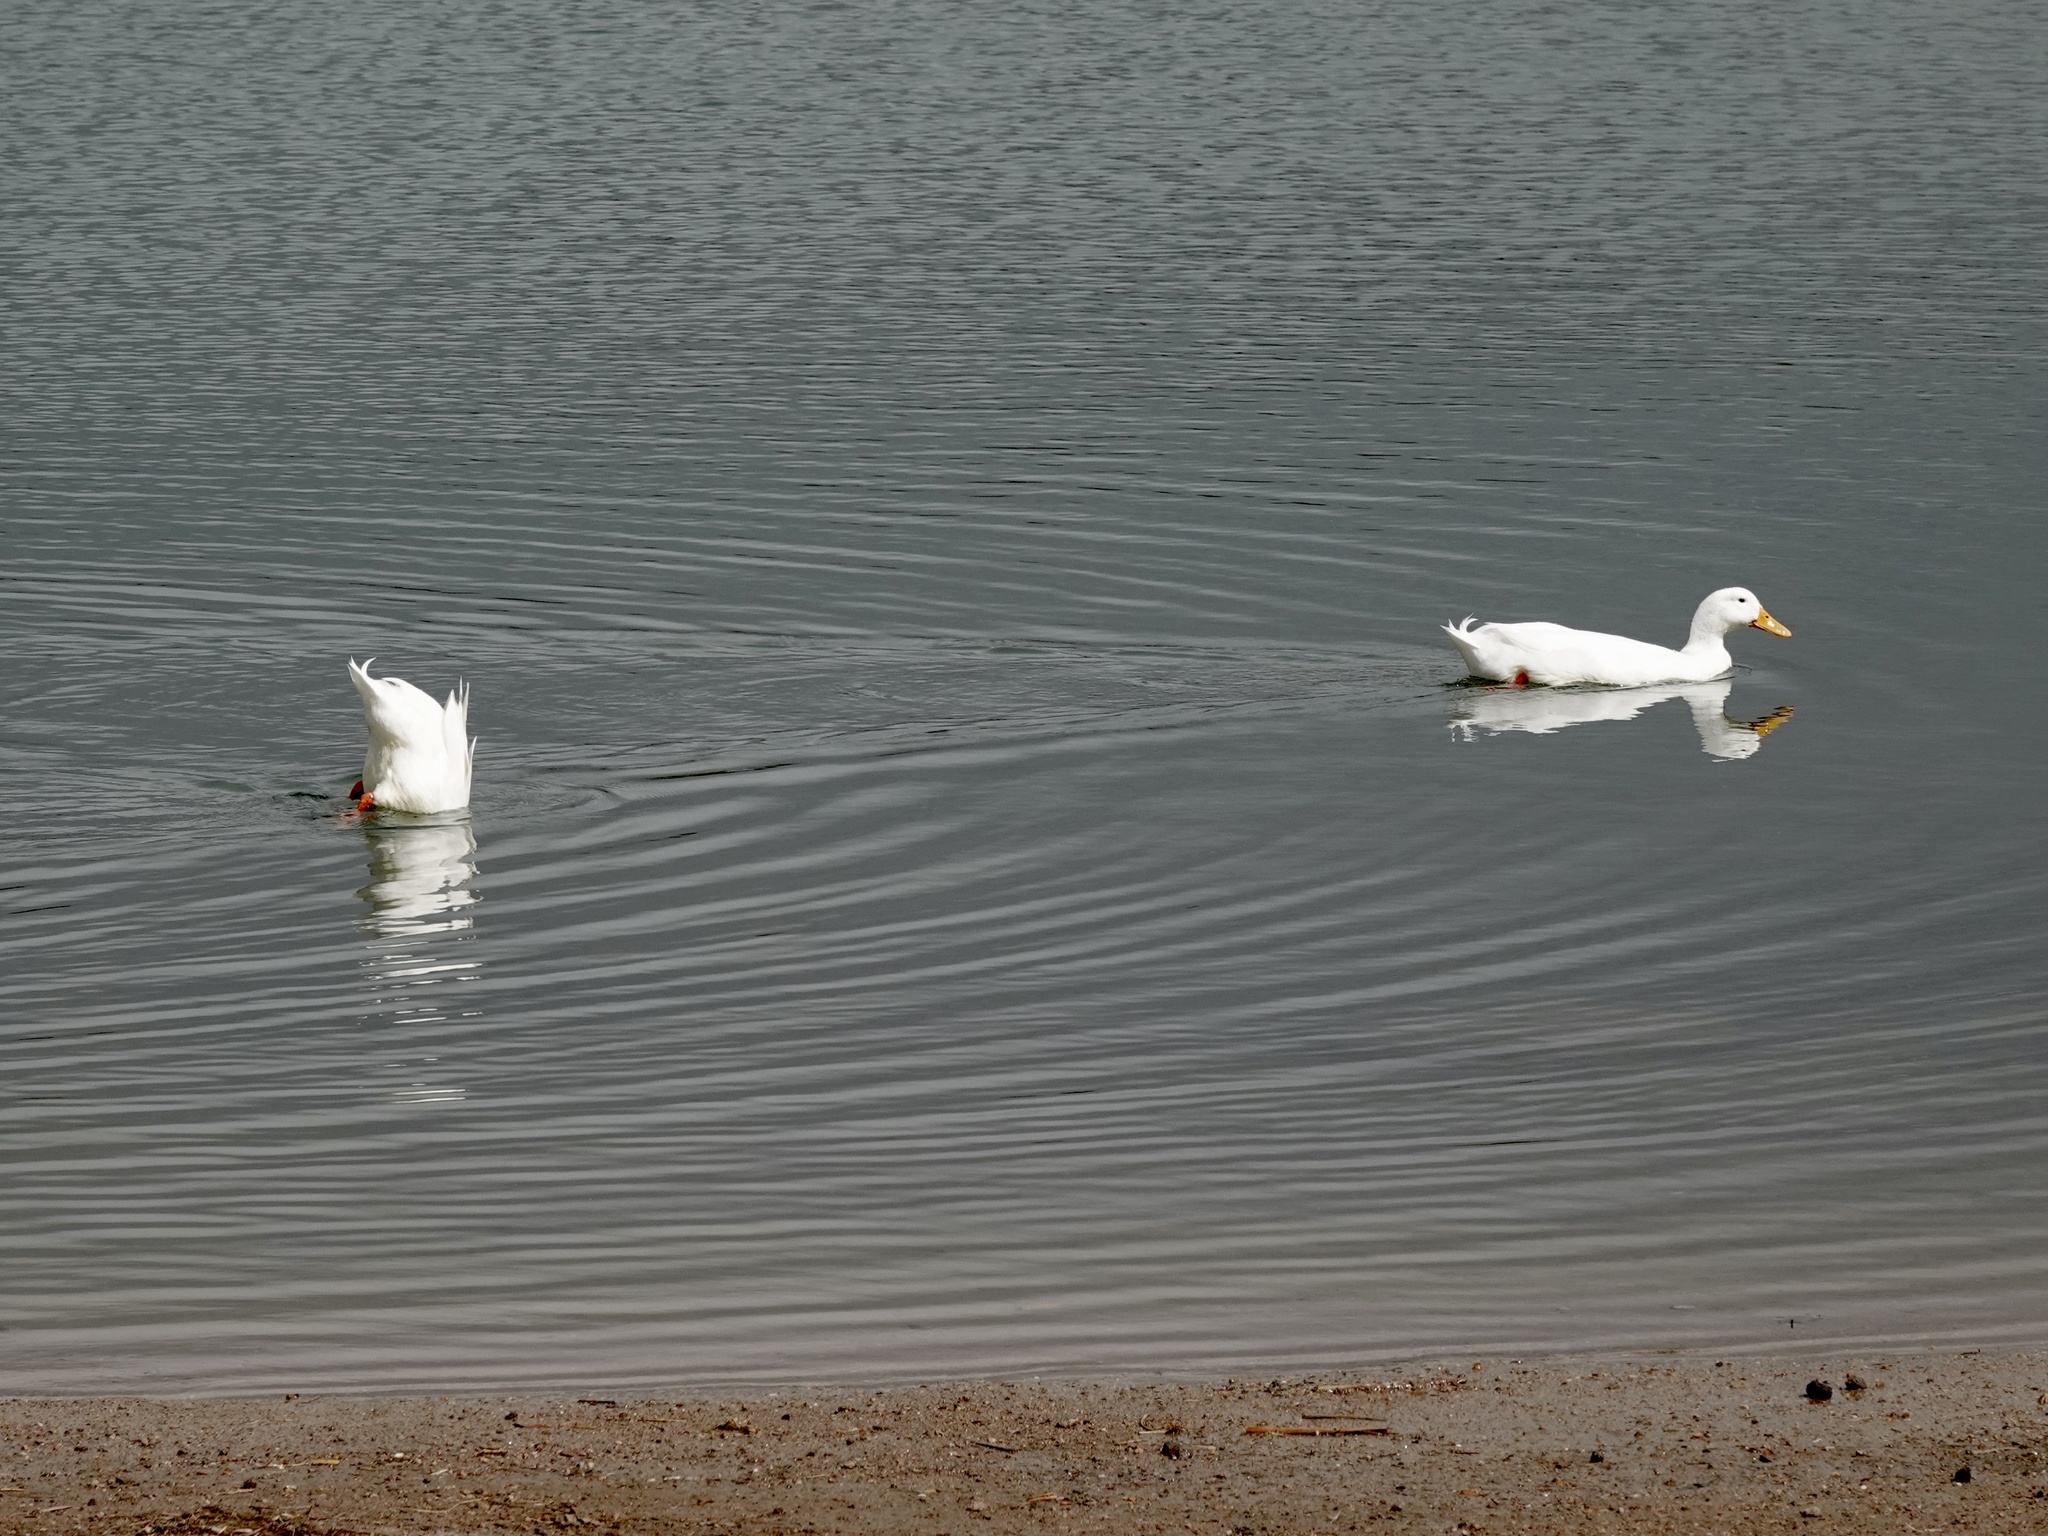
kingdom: Animalia
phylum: Chordata
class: Aves
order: Anseriformes
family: Anatidae
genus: Anas
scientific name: Anas platyrhynchos
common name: Mallard
